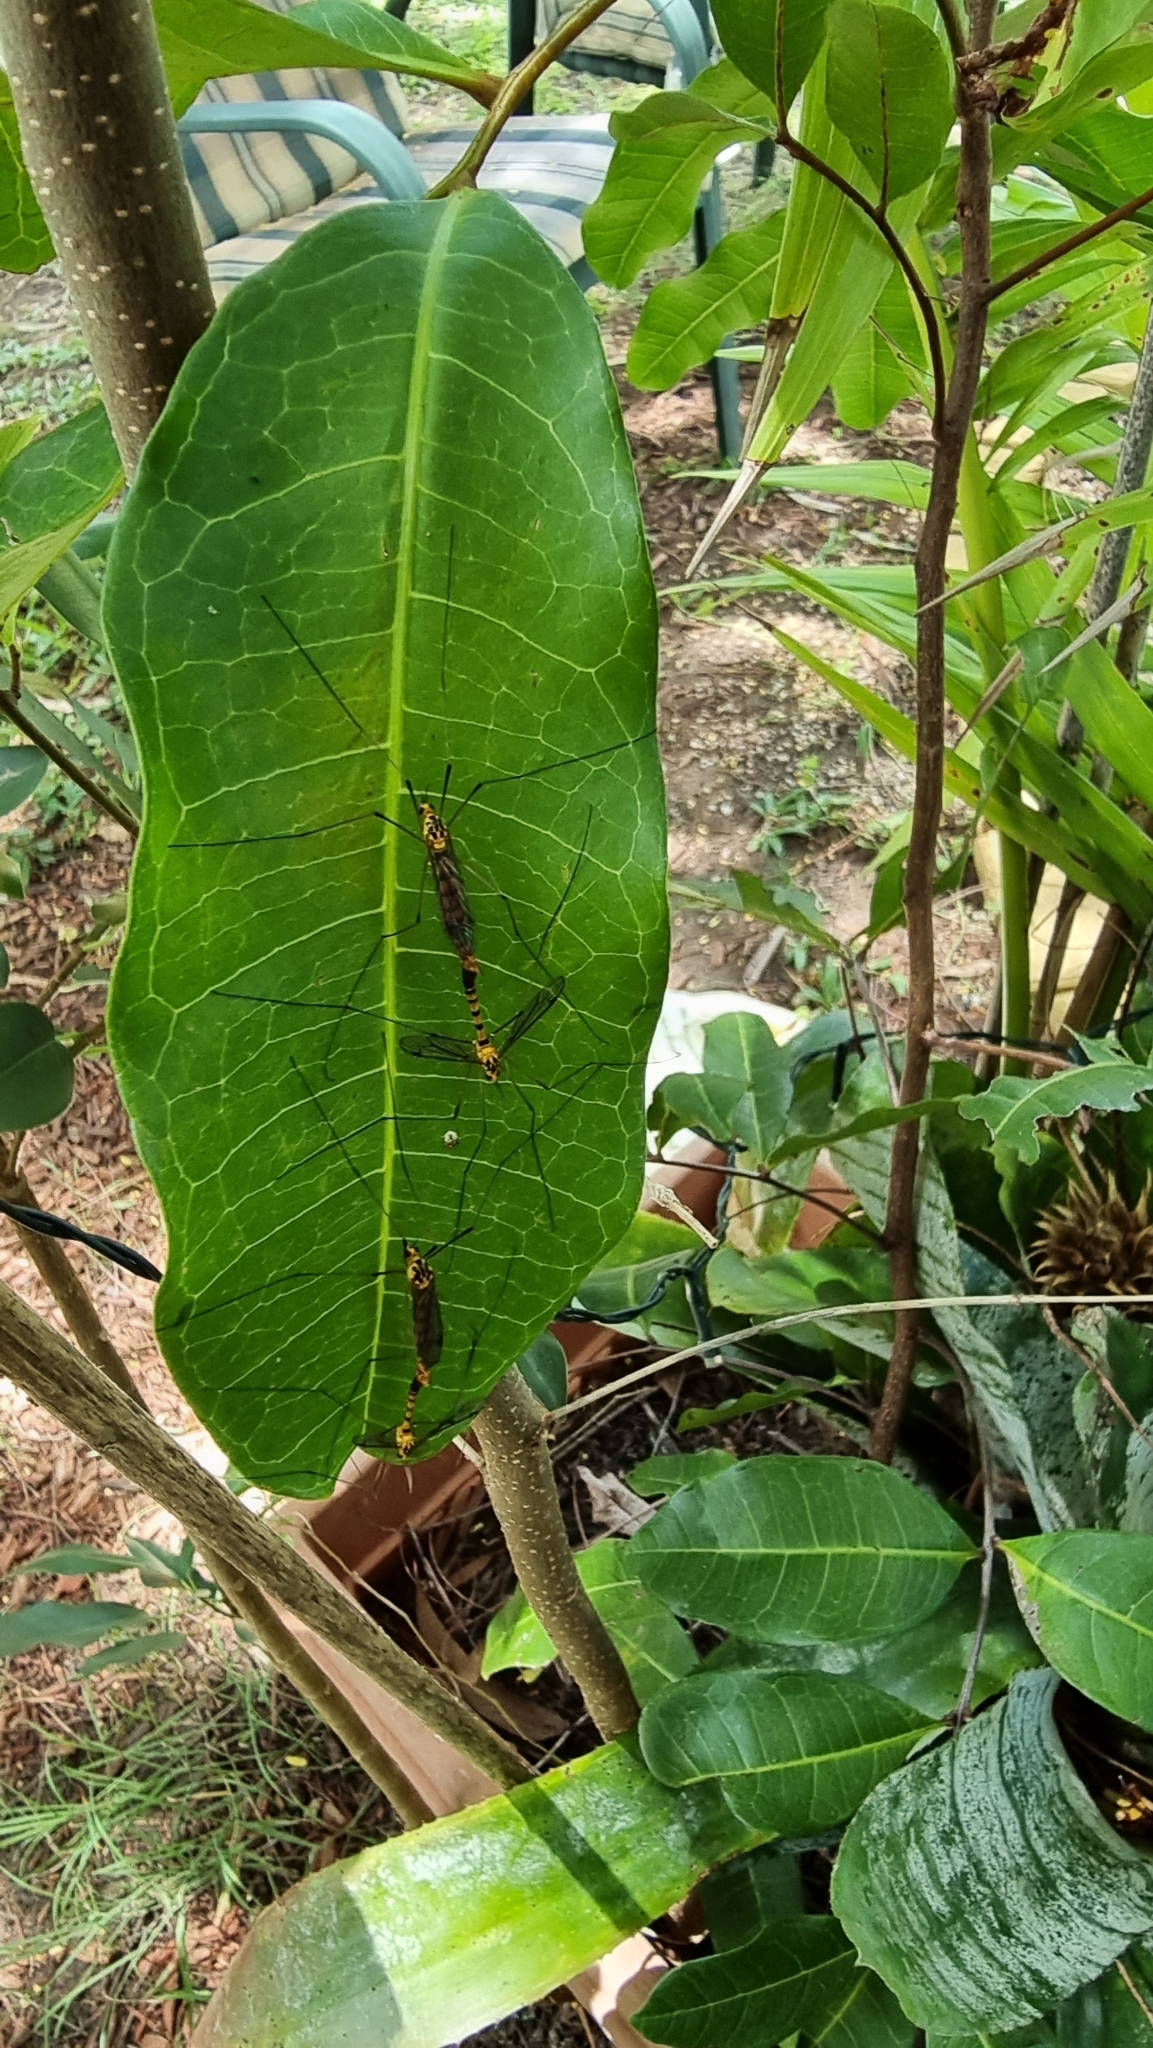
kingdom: Animalia
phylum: Arthropoda
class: Insecta
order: Diptera
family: Tipulidae
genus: Nephrotoma
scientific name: Nephrotoma australasiae
